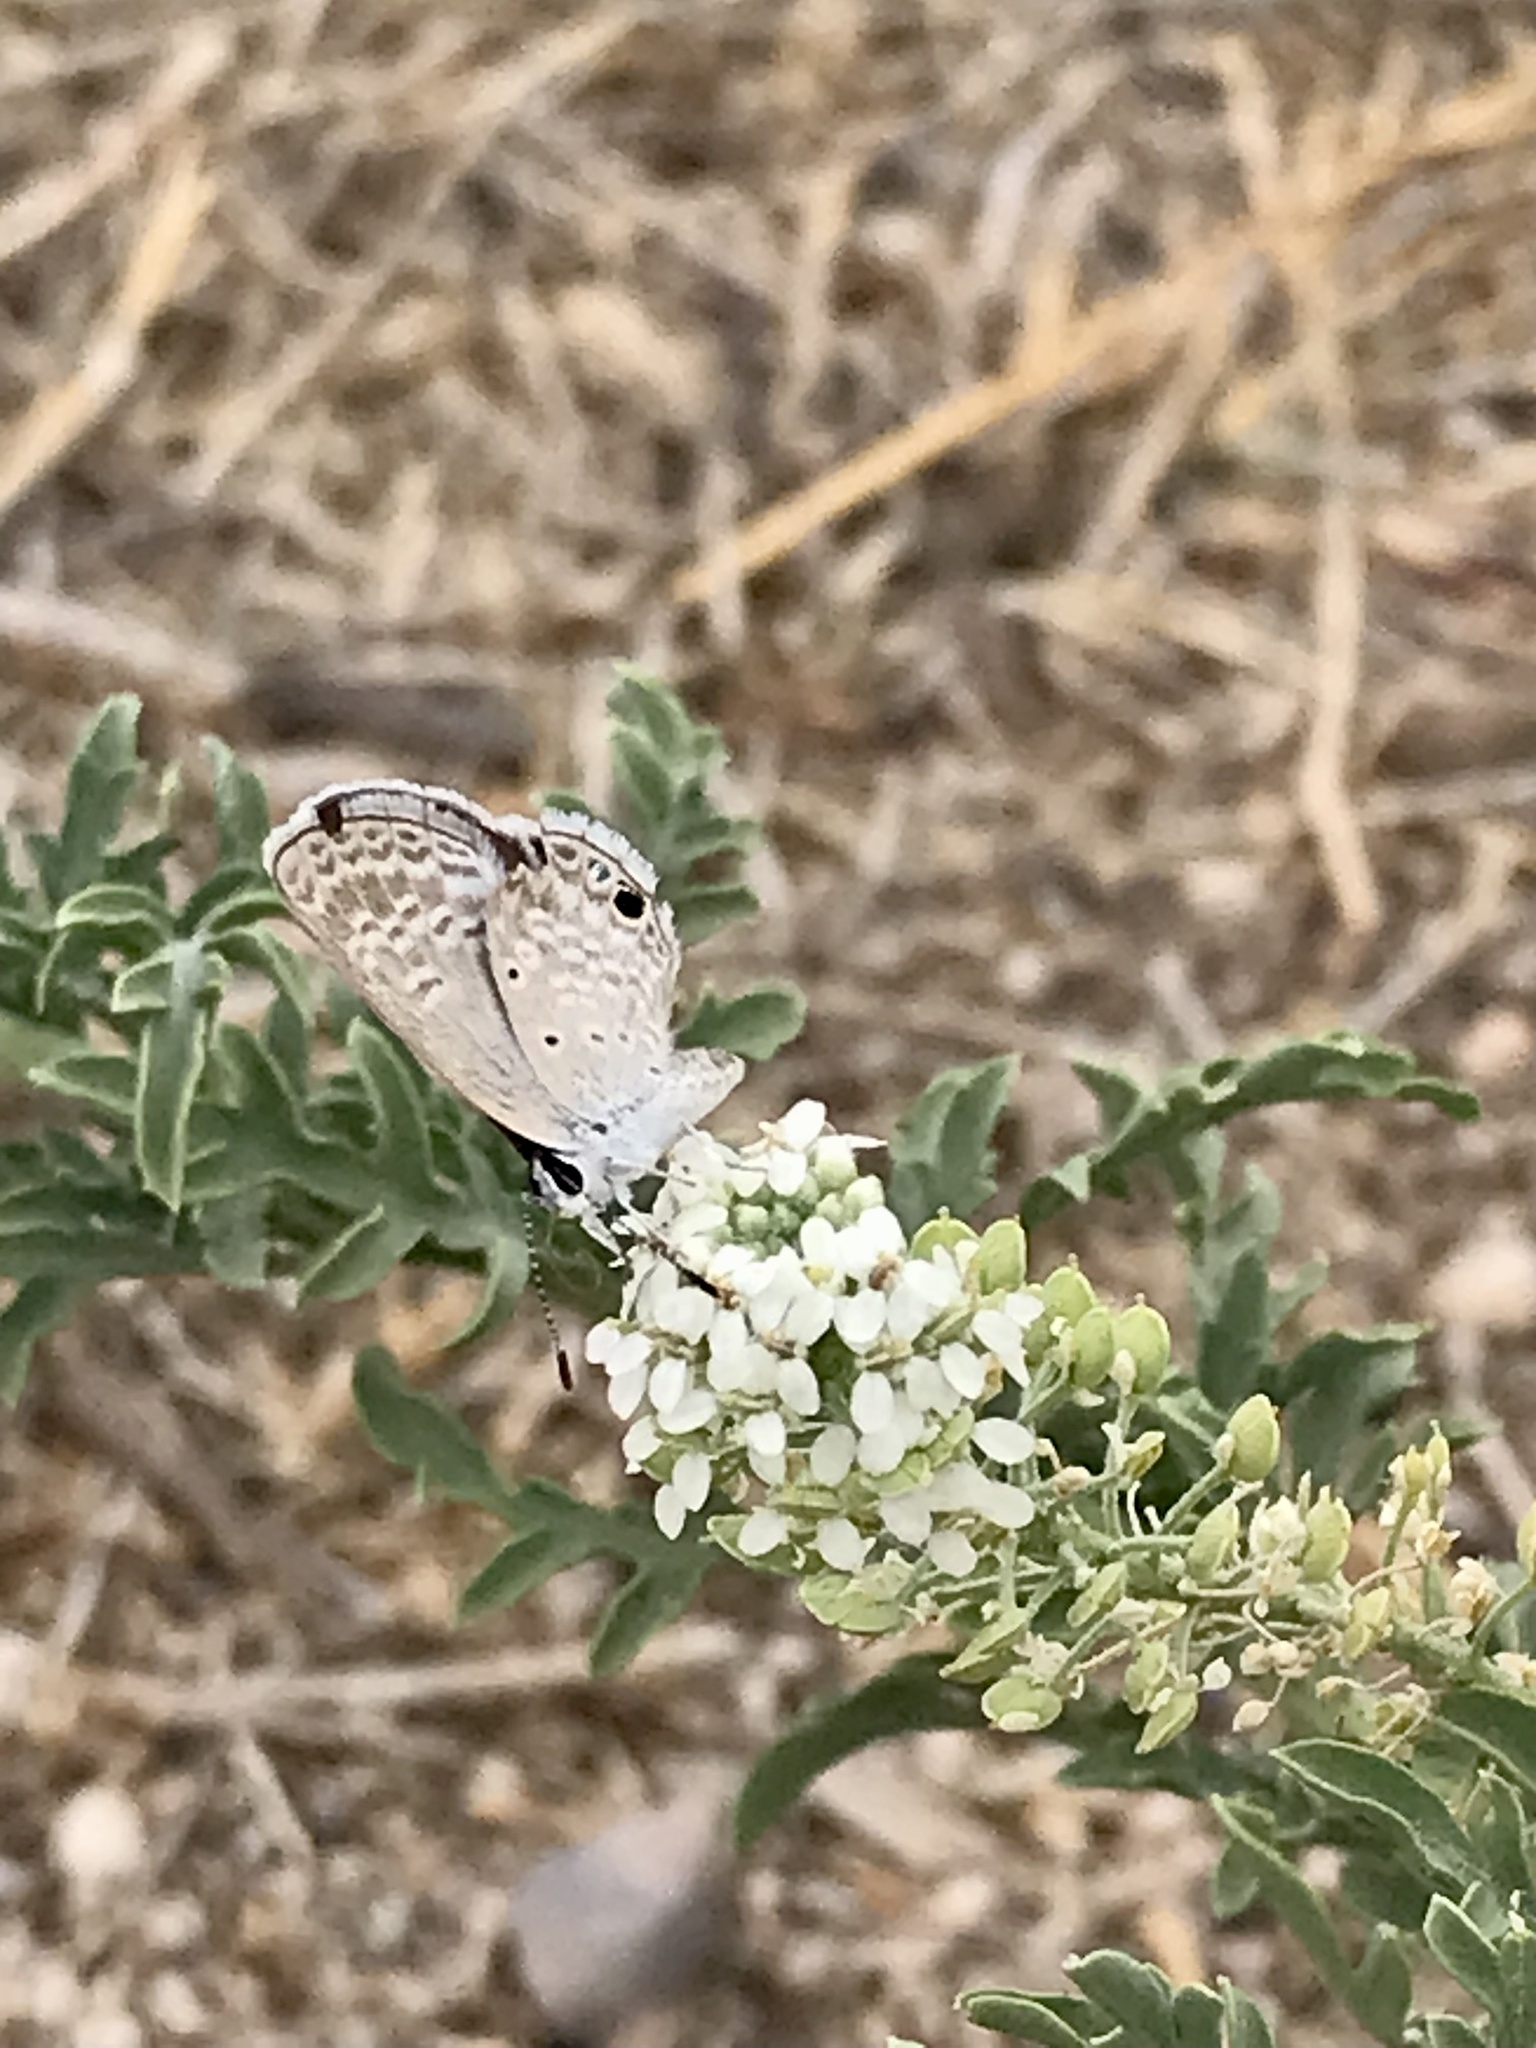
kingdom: Animalia
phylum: Arthropoda
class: Insecta
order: Lepidoptera
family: Lycaenidae
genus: Hemiargus
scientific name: Hemiargus ceraunus
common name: Ceraunus blue
